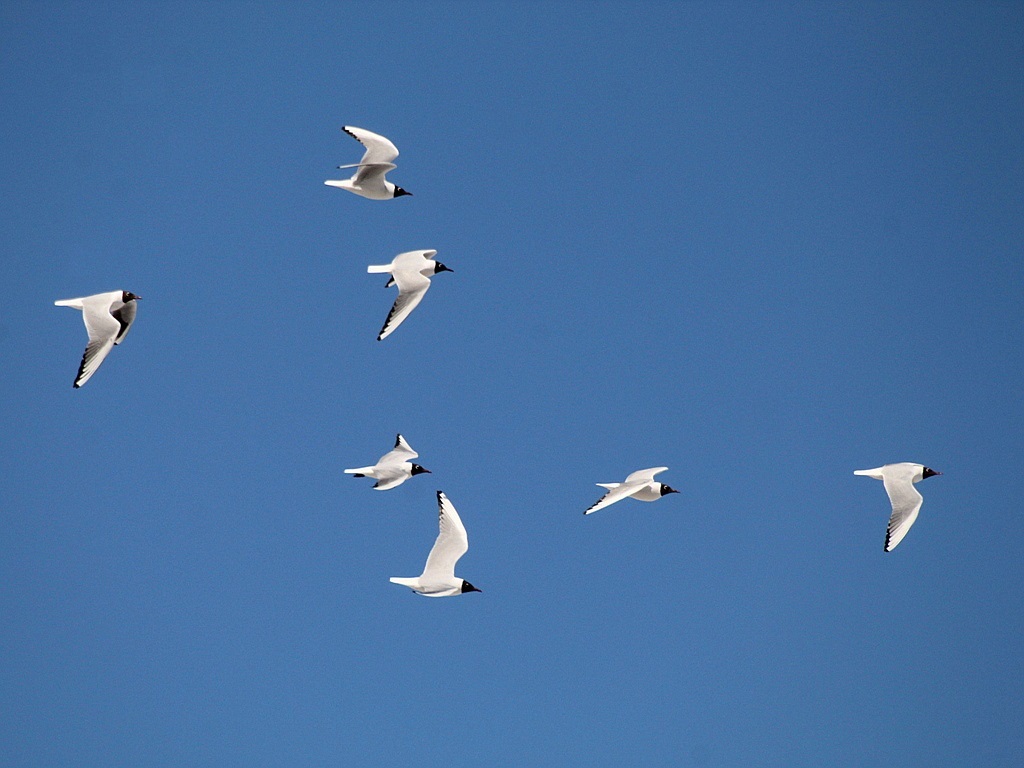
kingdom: Animalia
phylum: Chordata
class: Aves
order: Charadriiformes
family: Laridae
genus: Chroicocephalus
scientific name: Chroicocephalus ridibundus
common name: Black-headed gull
